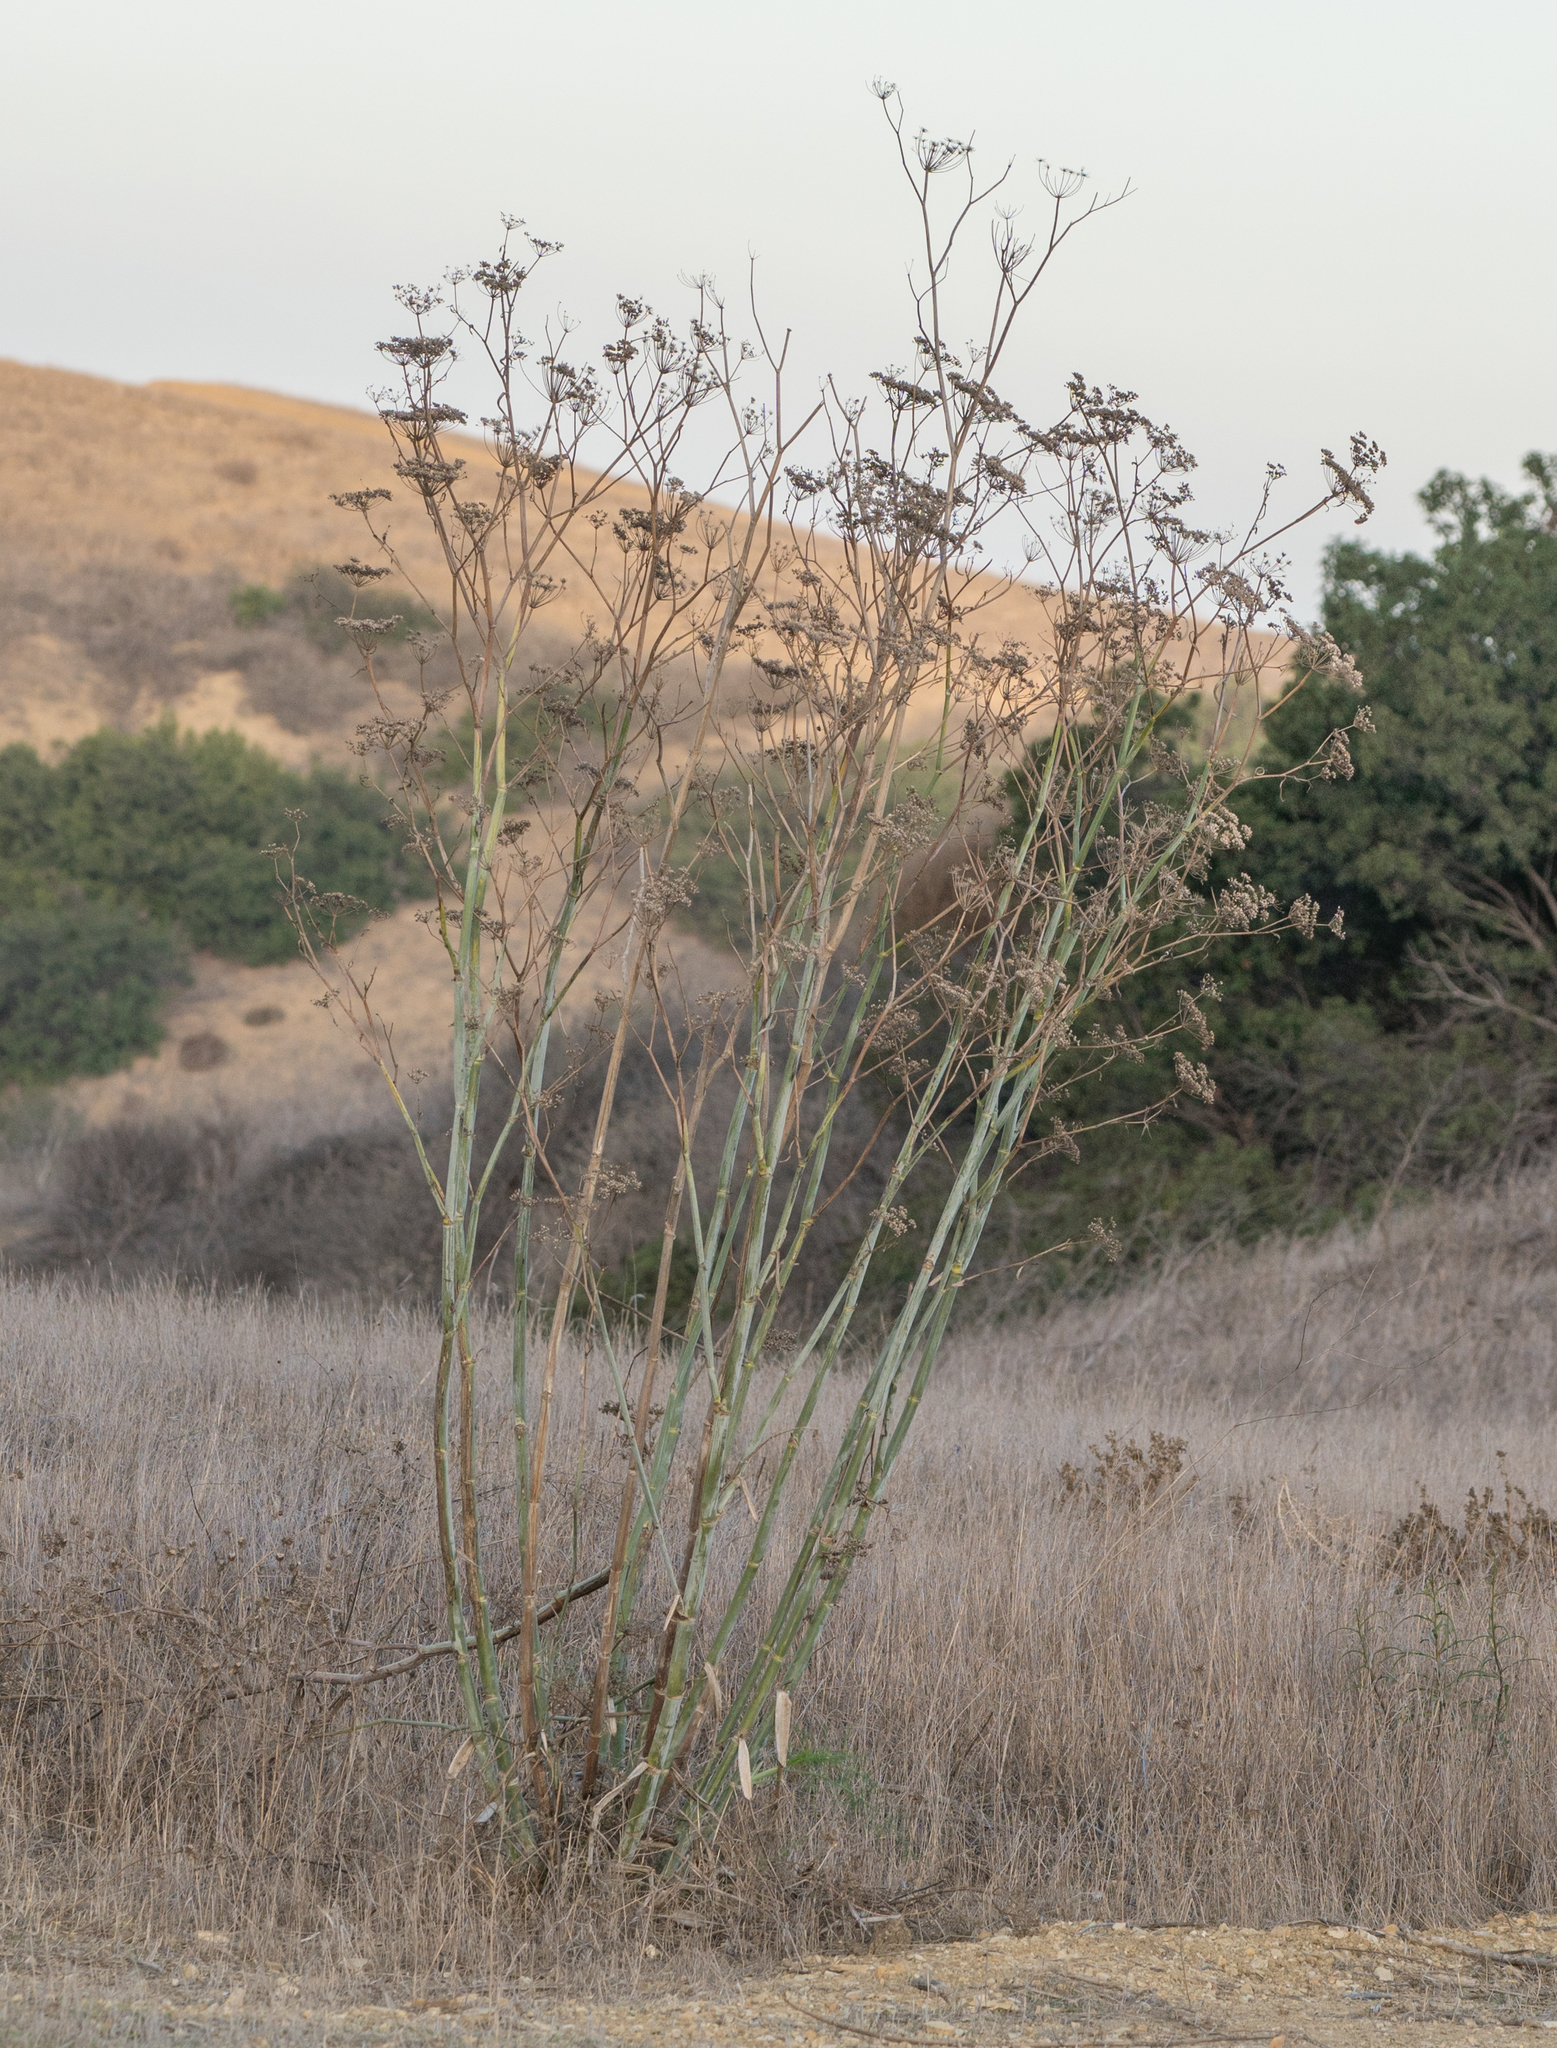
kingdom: Plantae
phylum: Tracheophyta
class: Magnoliopsida
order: Apiales
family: Apiaceae
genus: Foeniculum
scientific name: Foeniculum vulgare
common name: Fennel
